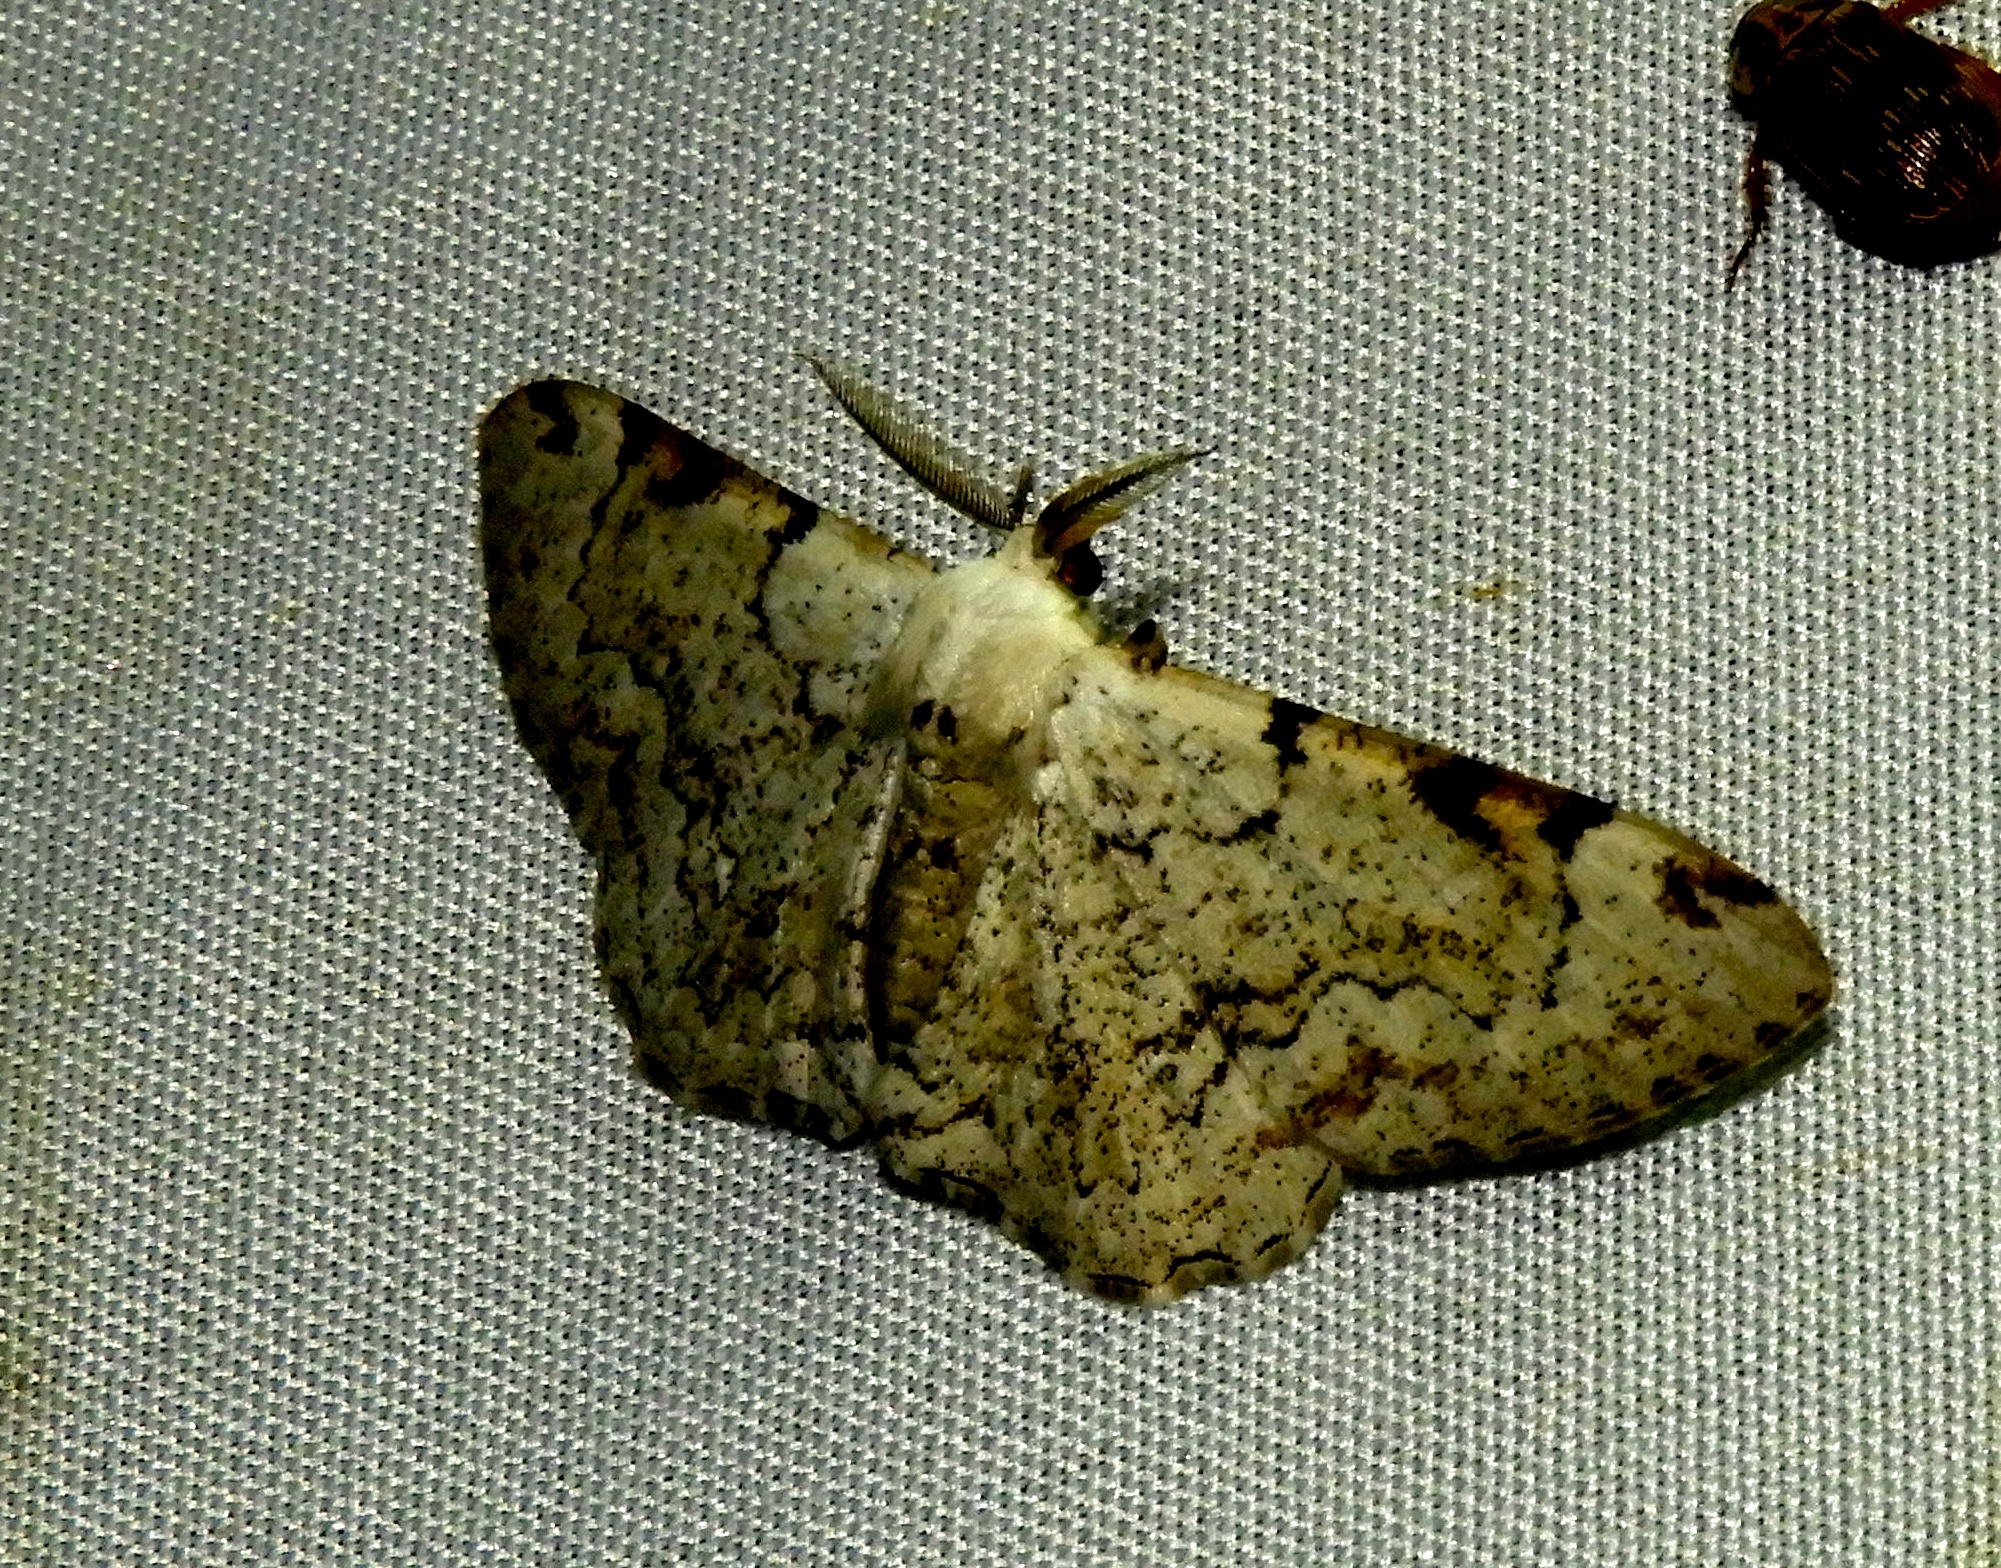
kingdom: Animalia
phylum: Arthropoda
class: Insecta
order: Lepidoptera
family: Geometridae
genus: Thyrinteina
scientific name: Thyrinteina arnobia
